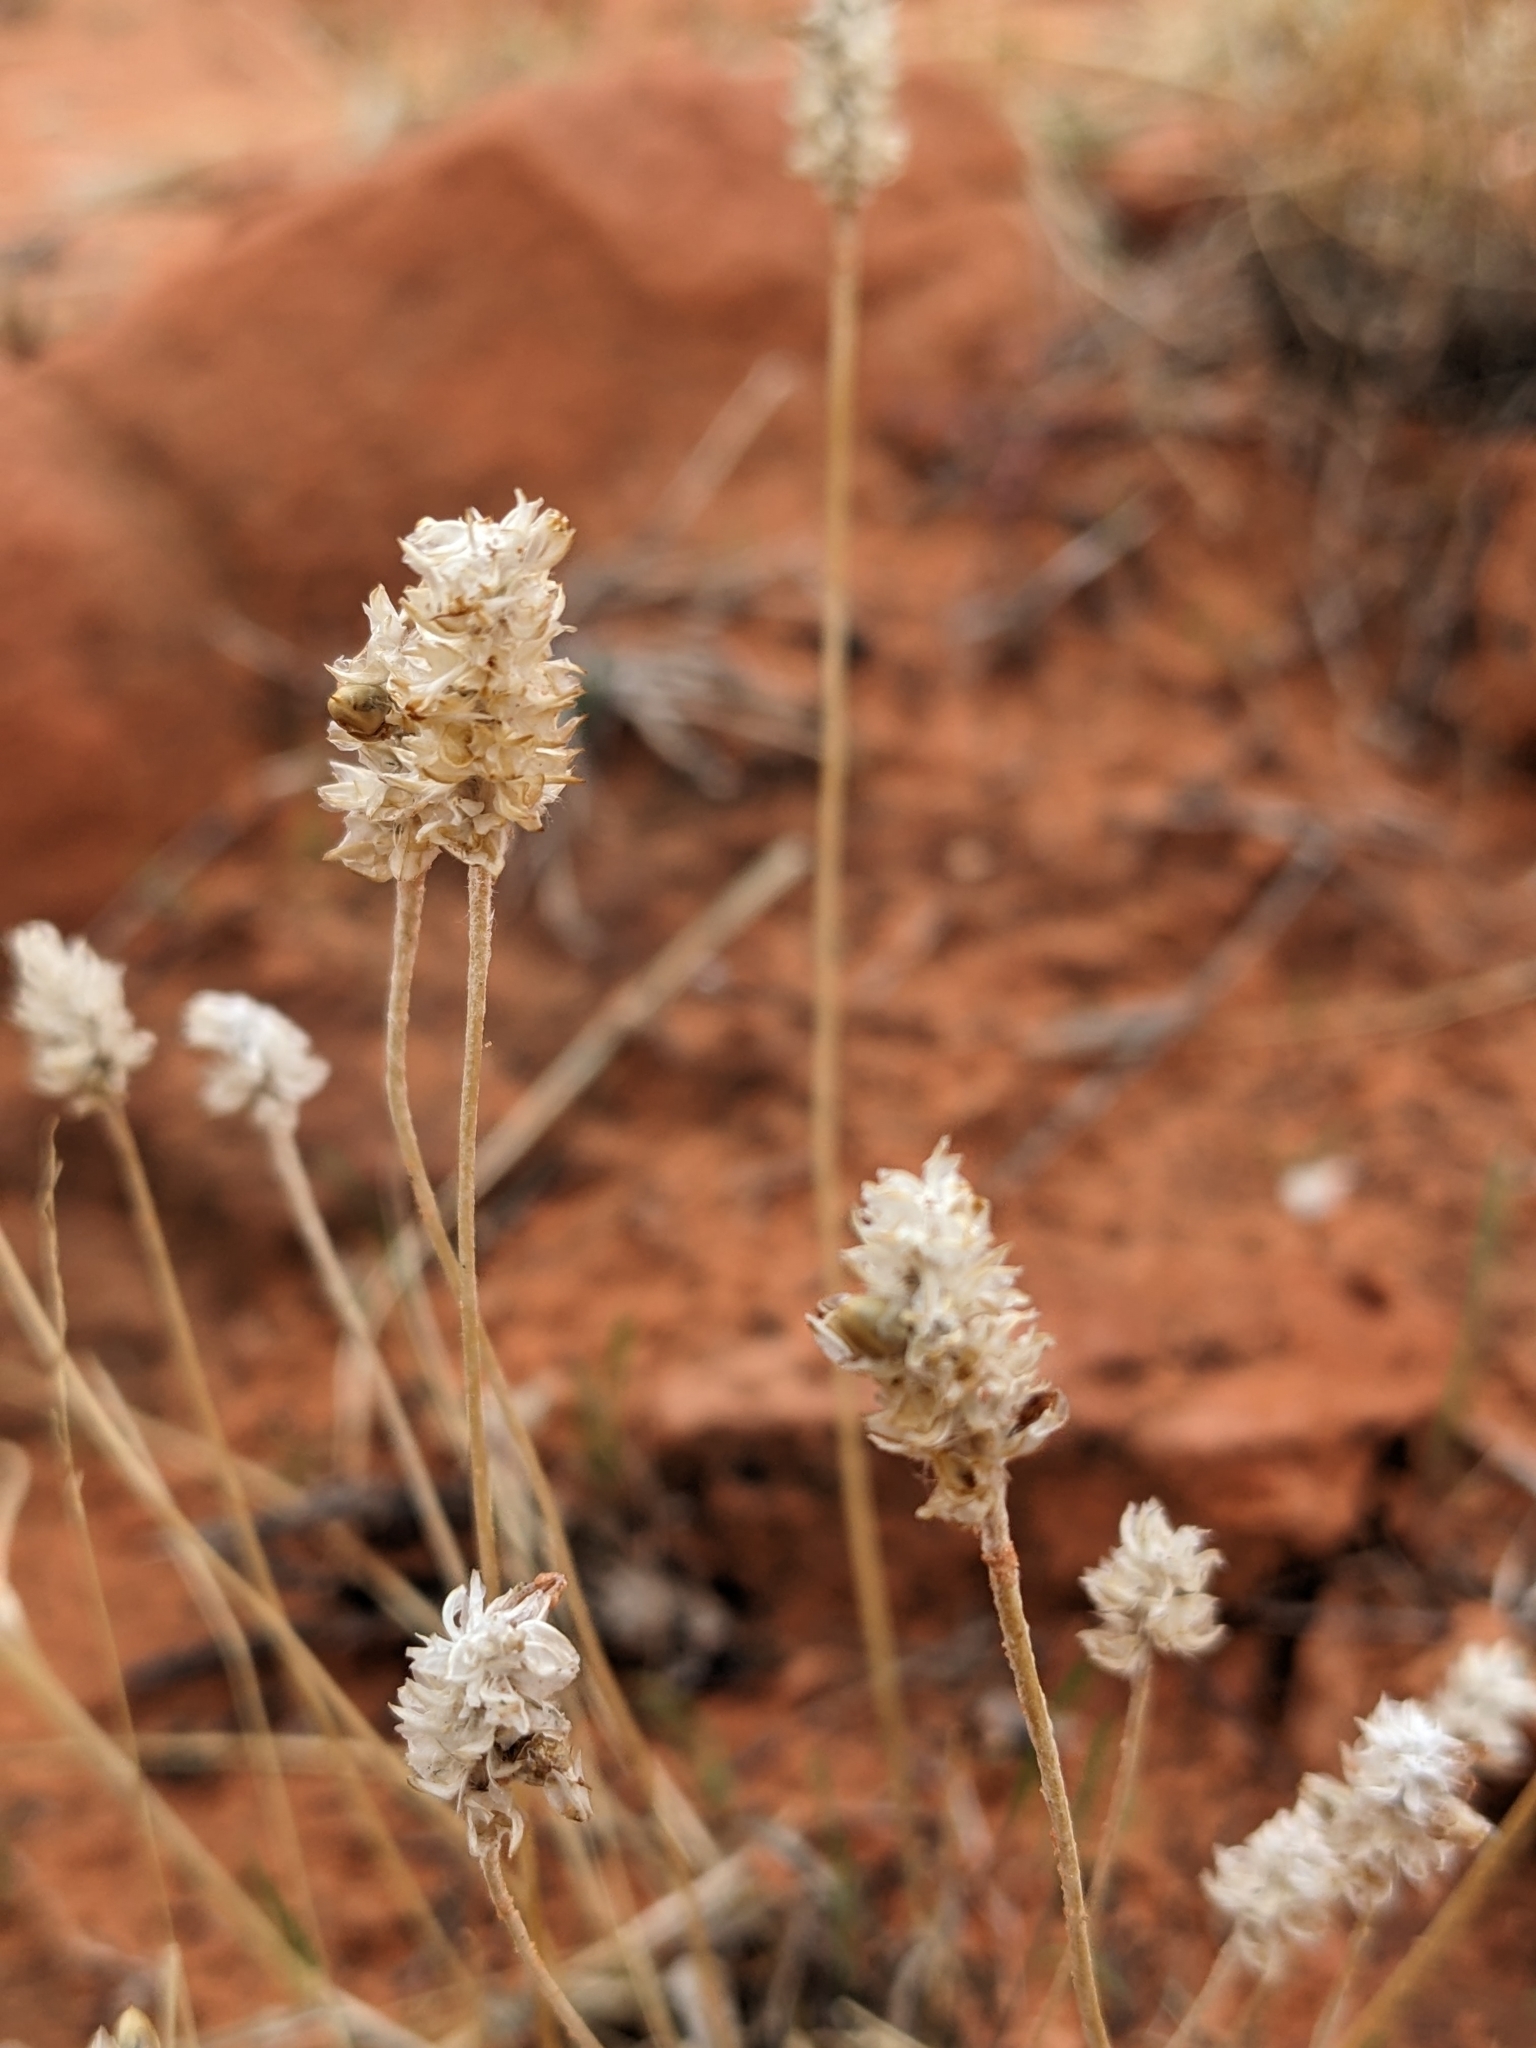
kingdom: Plantae
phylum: Tracheophyta
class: Magnoliopsida
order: Lamiales
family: Plantaginaceae
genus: Plantago
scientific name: Plantago ovata
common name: Blond plantain
